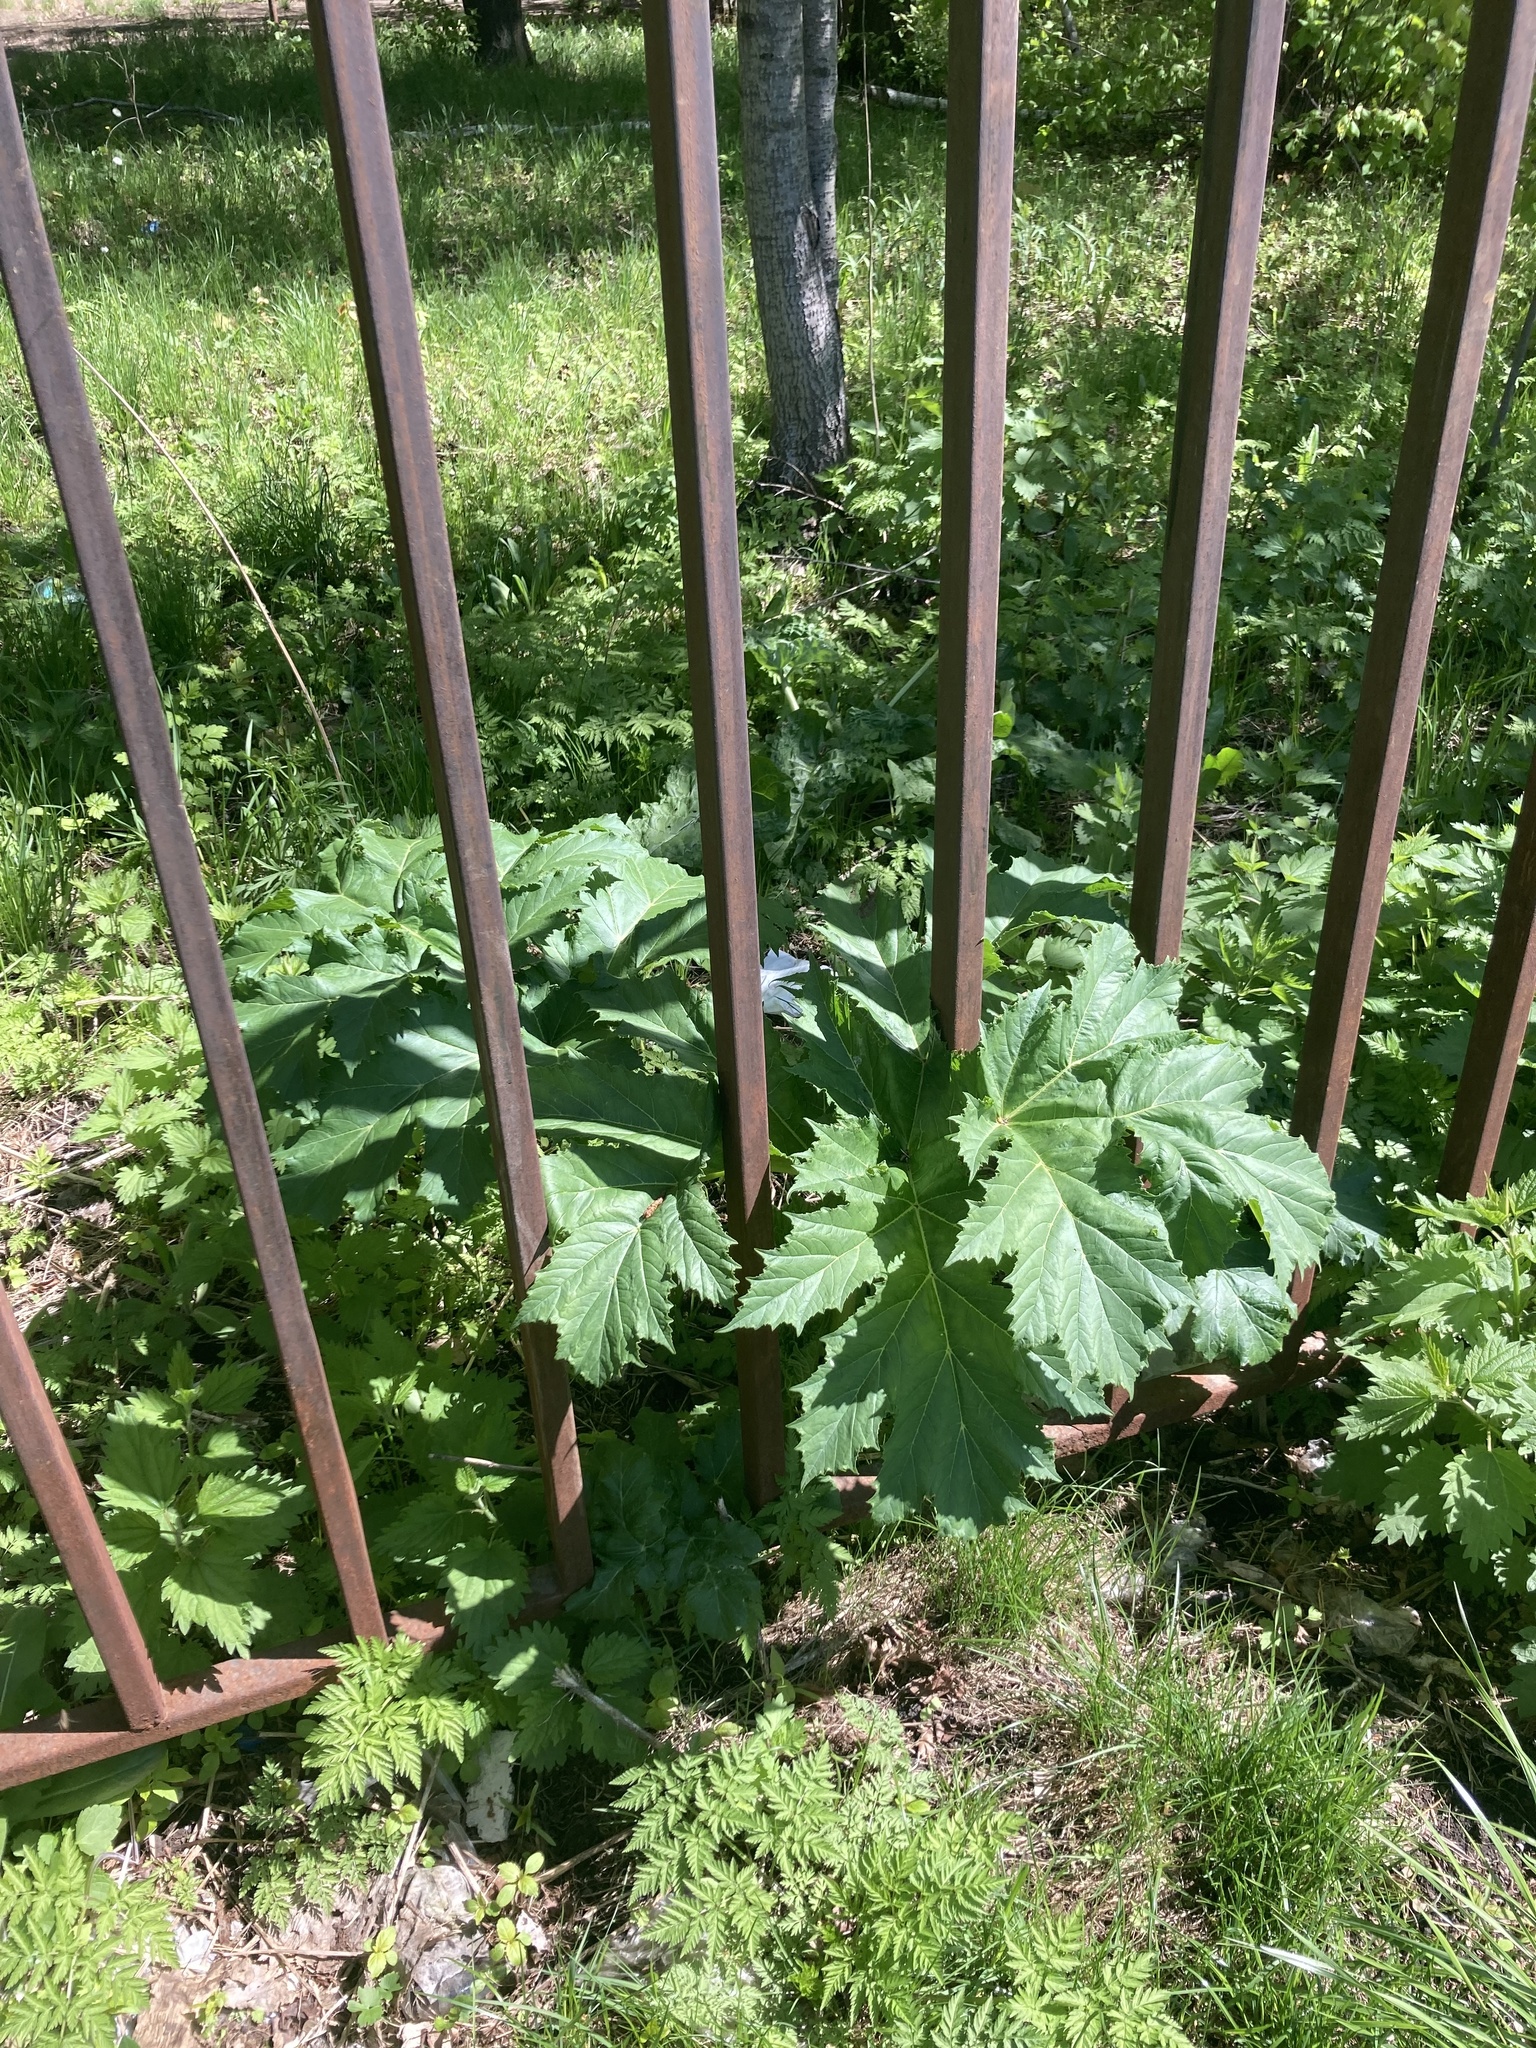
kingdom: Plantae
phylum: Tracheophyta
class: Magnoliopsida
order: Apiales
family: Apiaceae
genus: Heracleum
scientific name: Heracleum sosnowskyi
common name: Sosnowsky's hogweed
